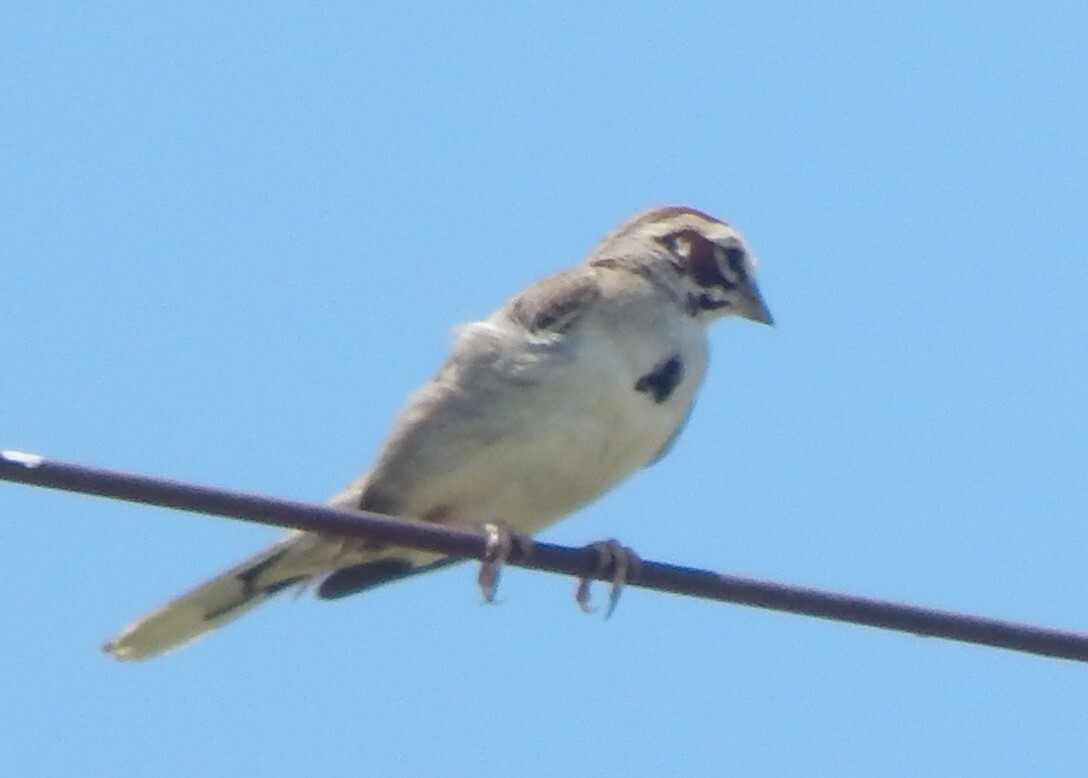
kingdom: Animalia
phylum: Chordata
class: Aves
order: Passeriformes
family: Passerellidae
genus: Chondestes
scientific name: Chondestes grammacus
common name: Lark sparrow
